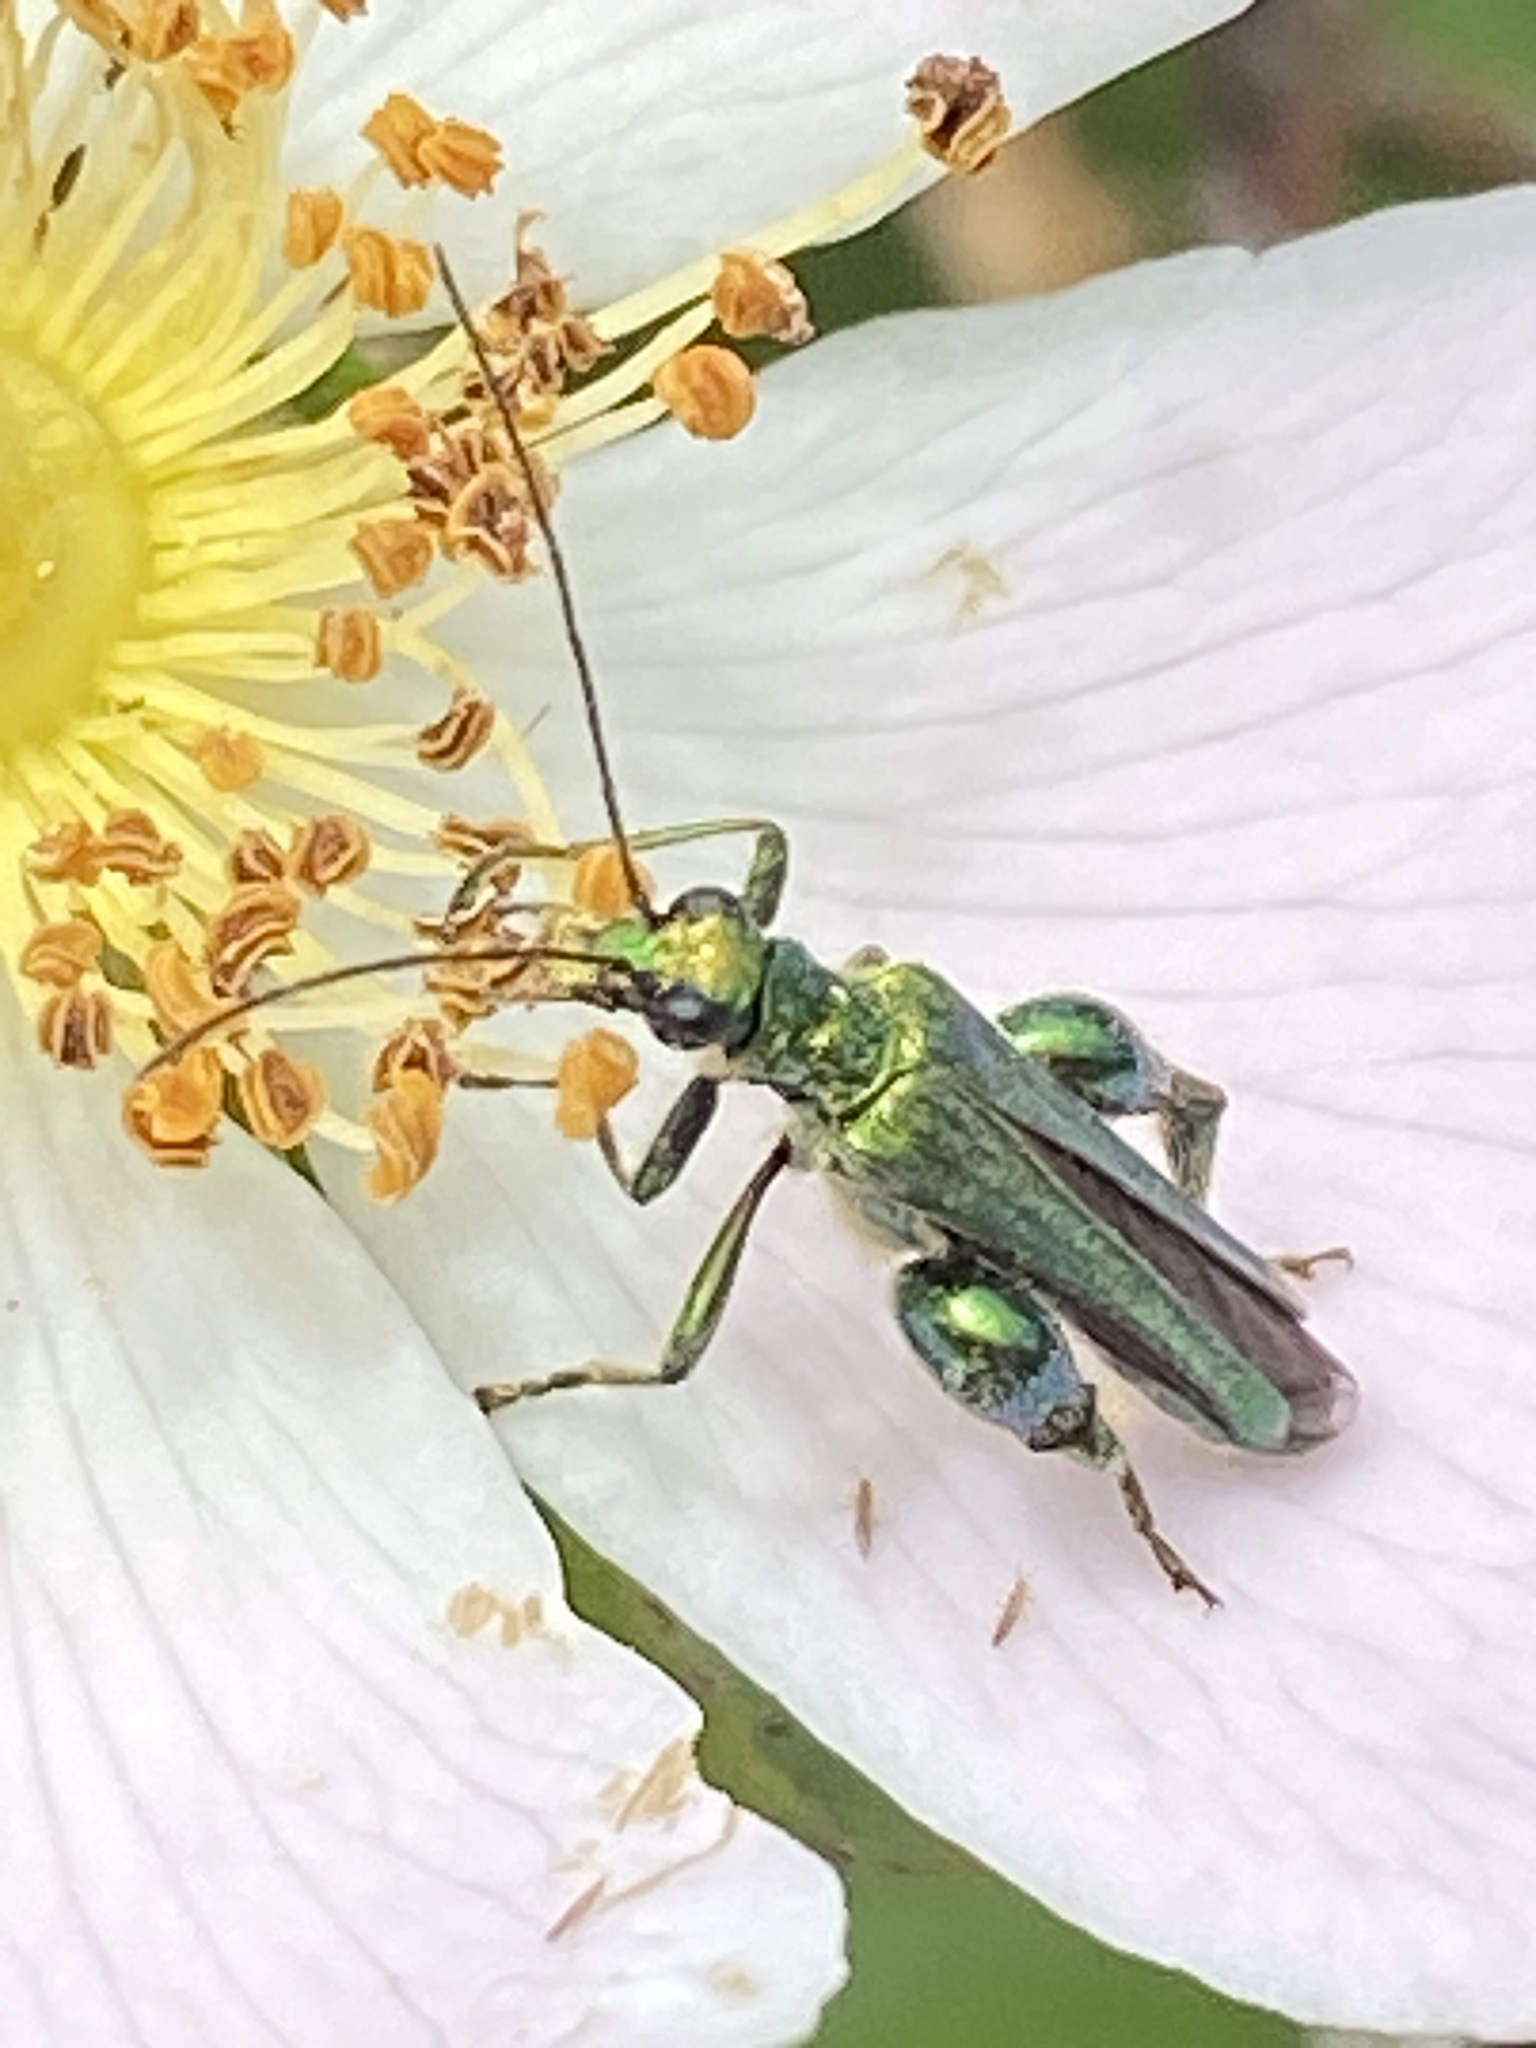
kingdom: Animalia
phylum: Arthropoda
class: Insecta
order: Coleoptera
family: Oedemeridae
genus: Oedemera
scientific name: Oedemera nobilis
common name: Swollen-thighed beetle
